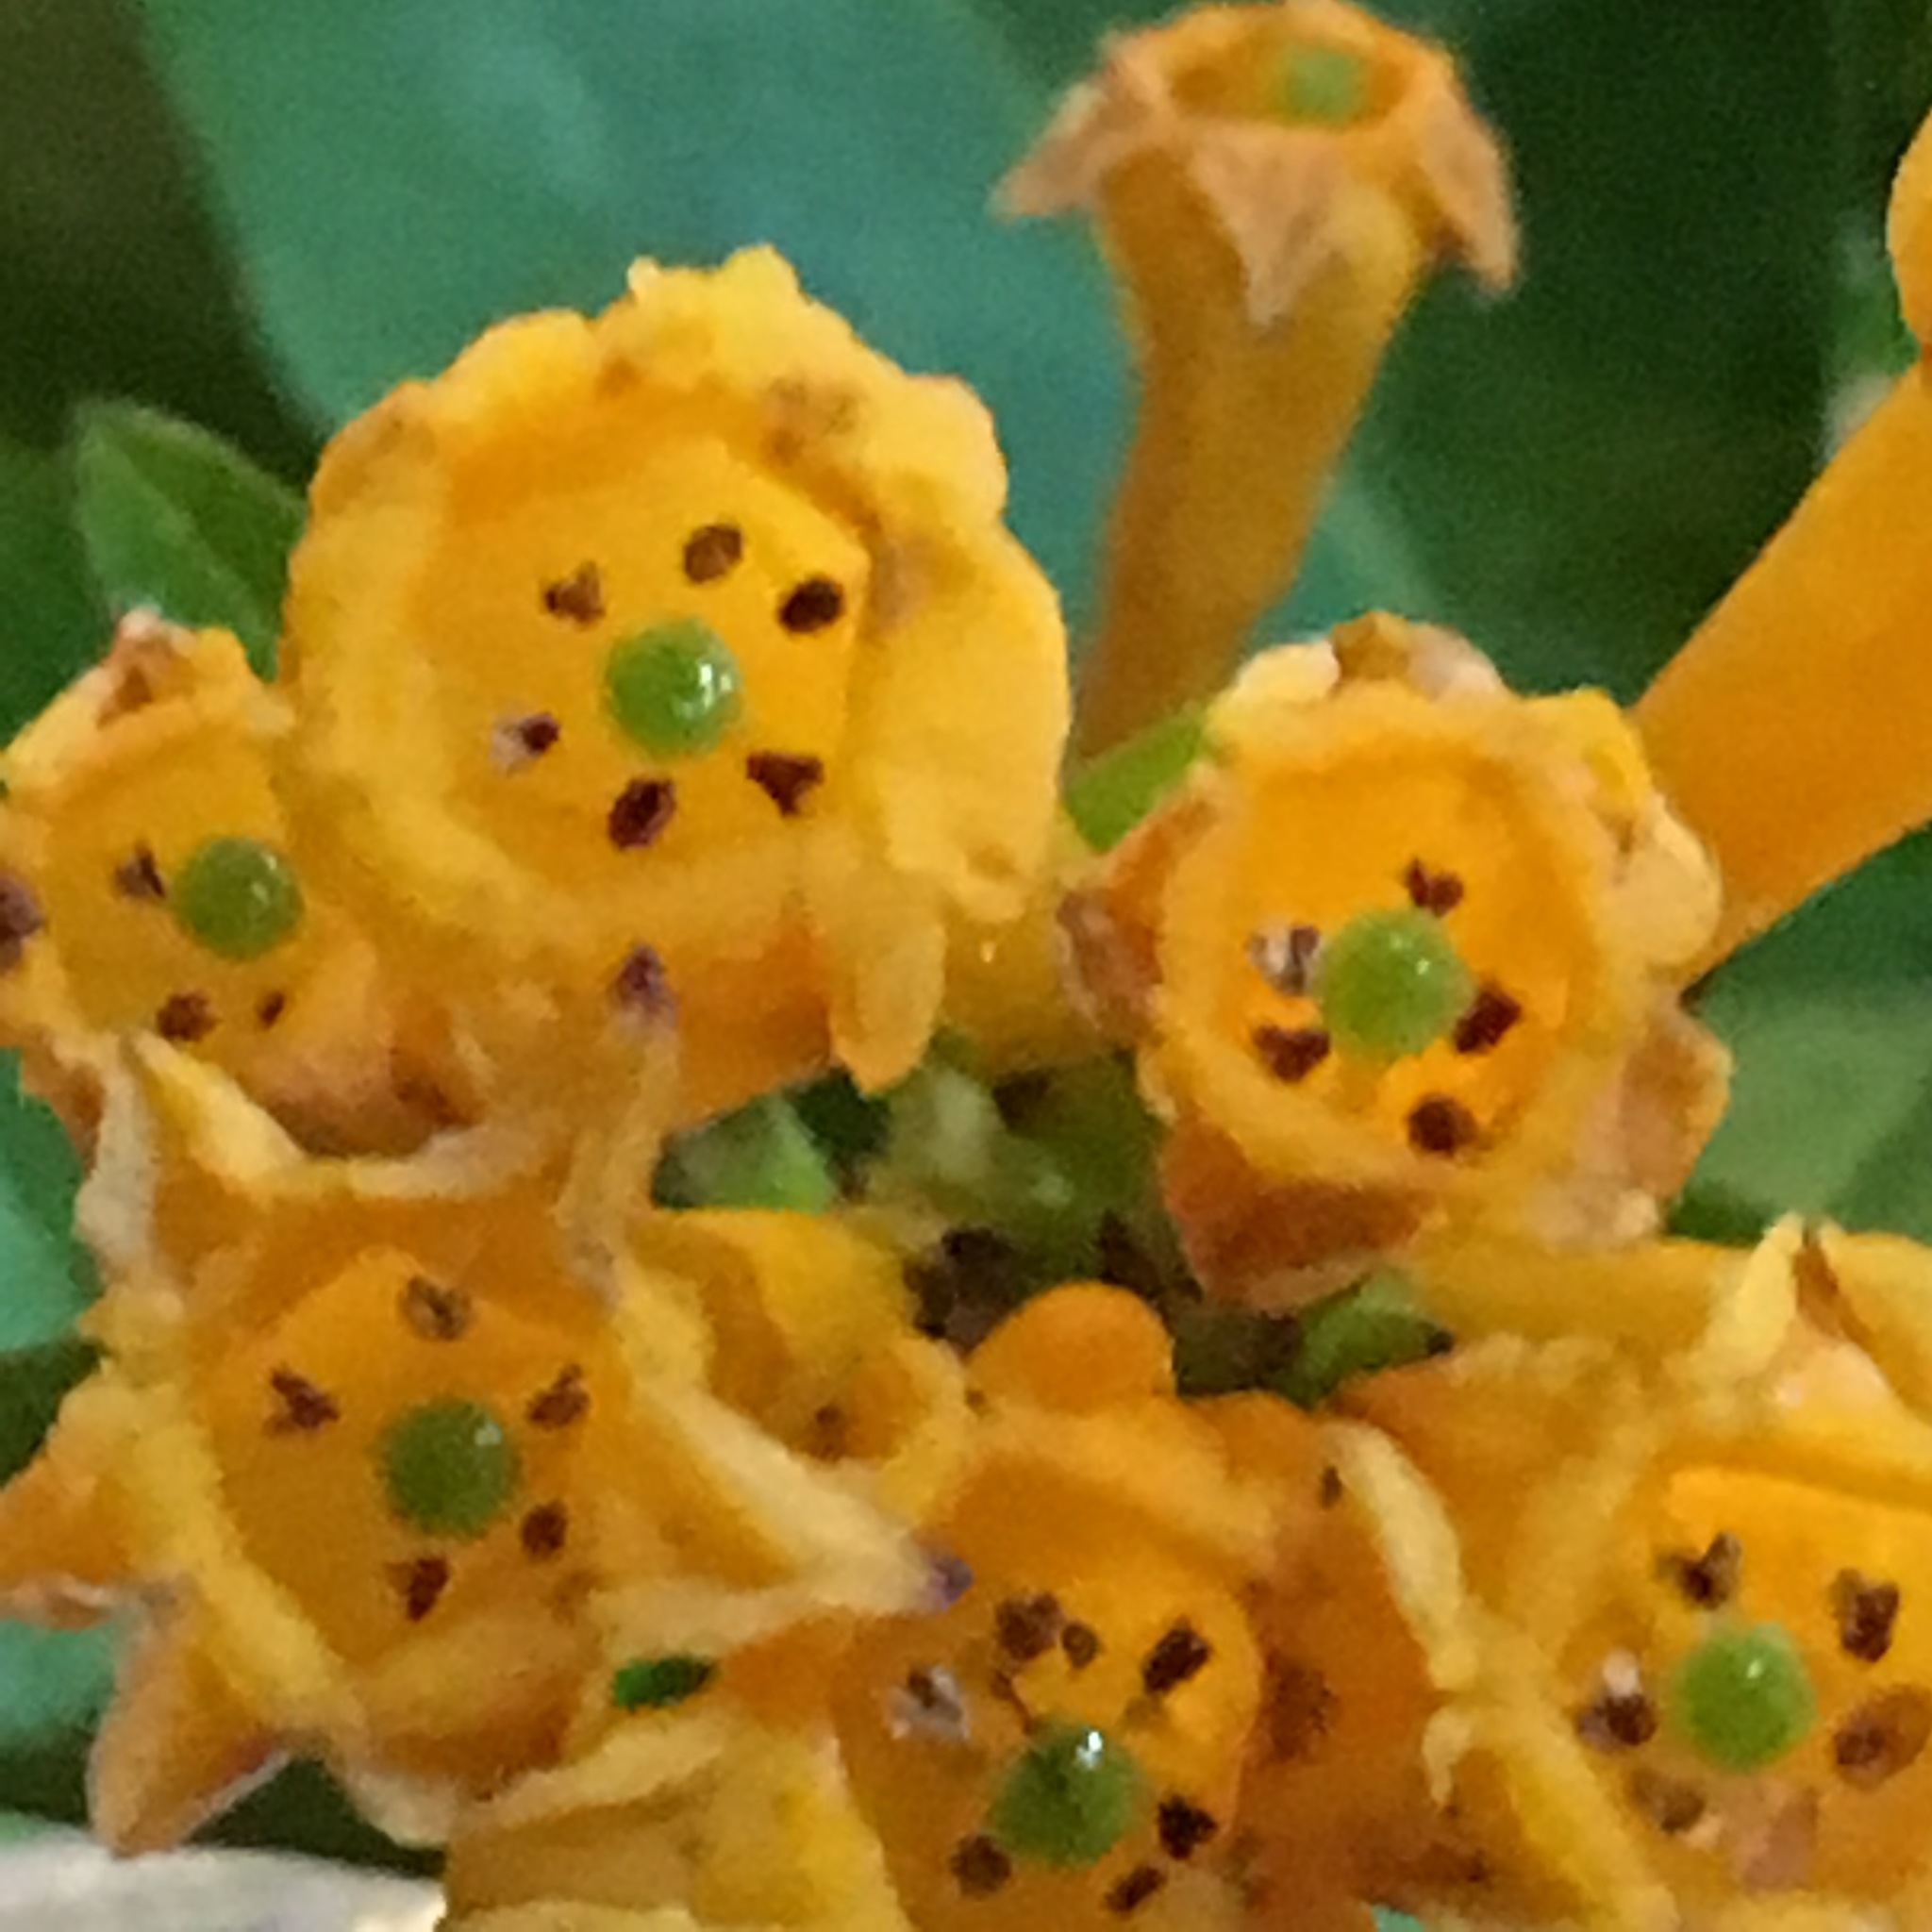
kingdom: Plantae
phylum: Tracheophyta
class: Magnoliopsida
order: Solanales
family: Solanaceae
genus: Cestrum
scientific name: Cestrum aurantiacum
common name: Orange cestrum
